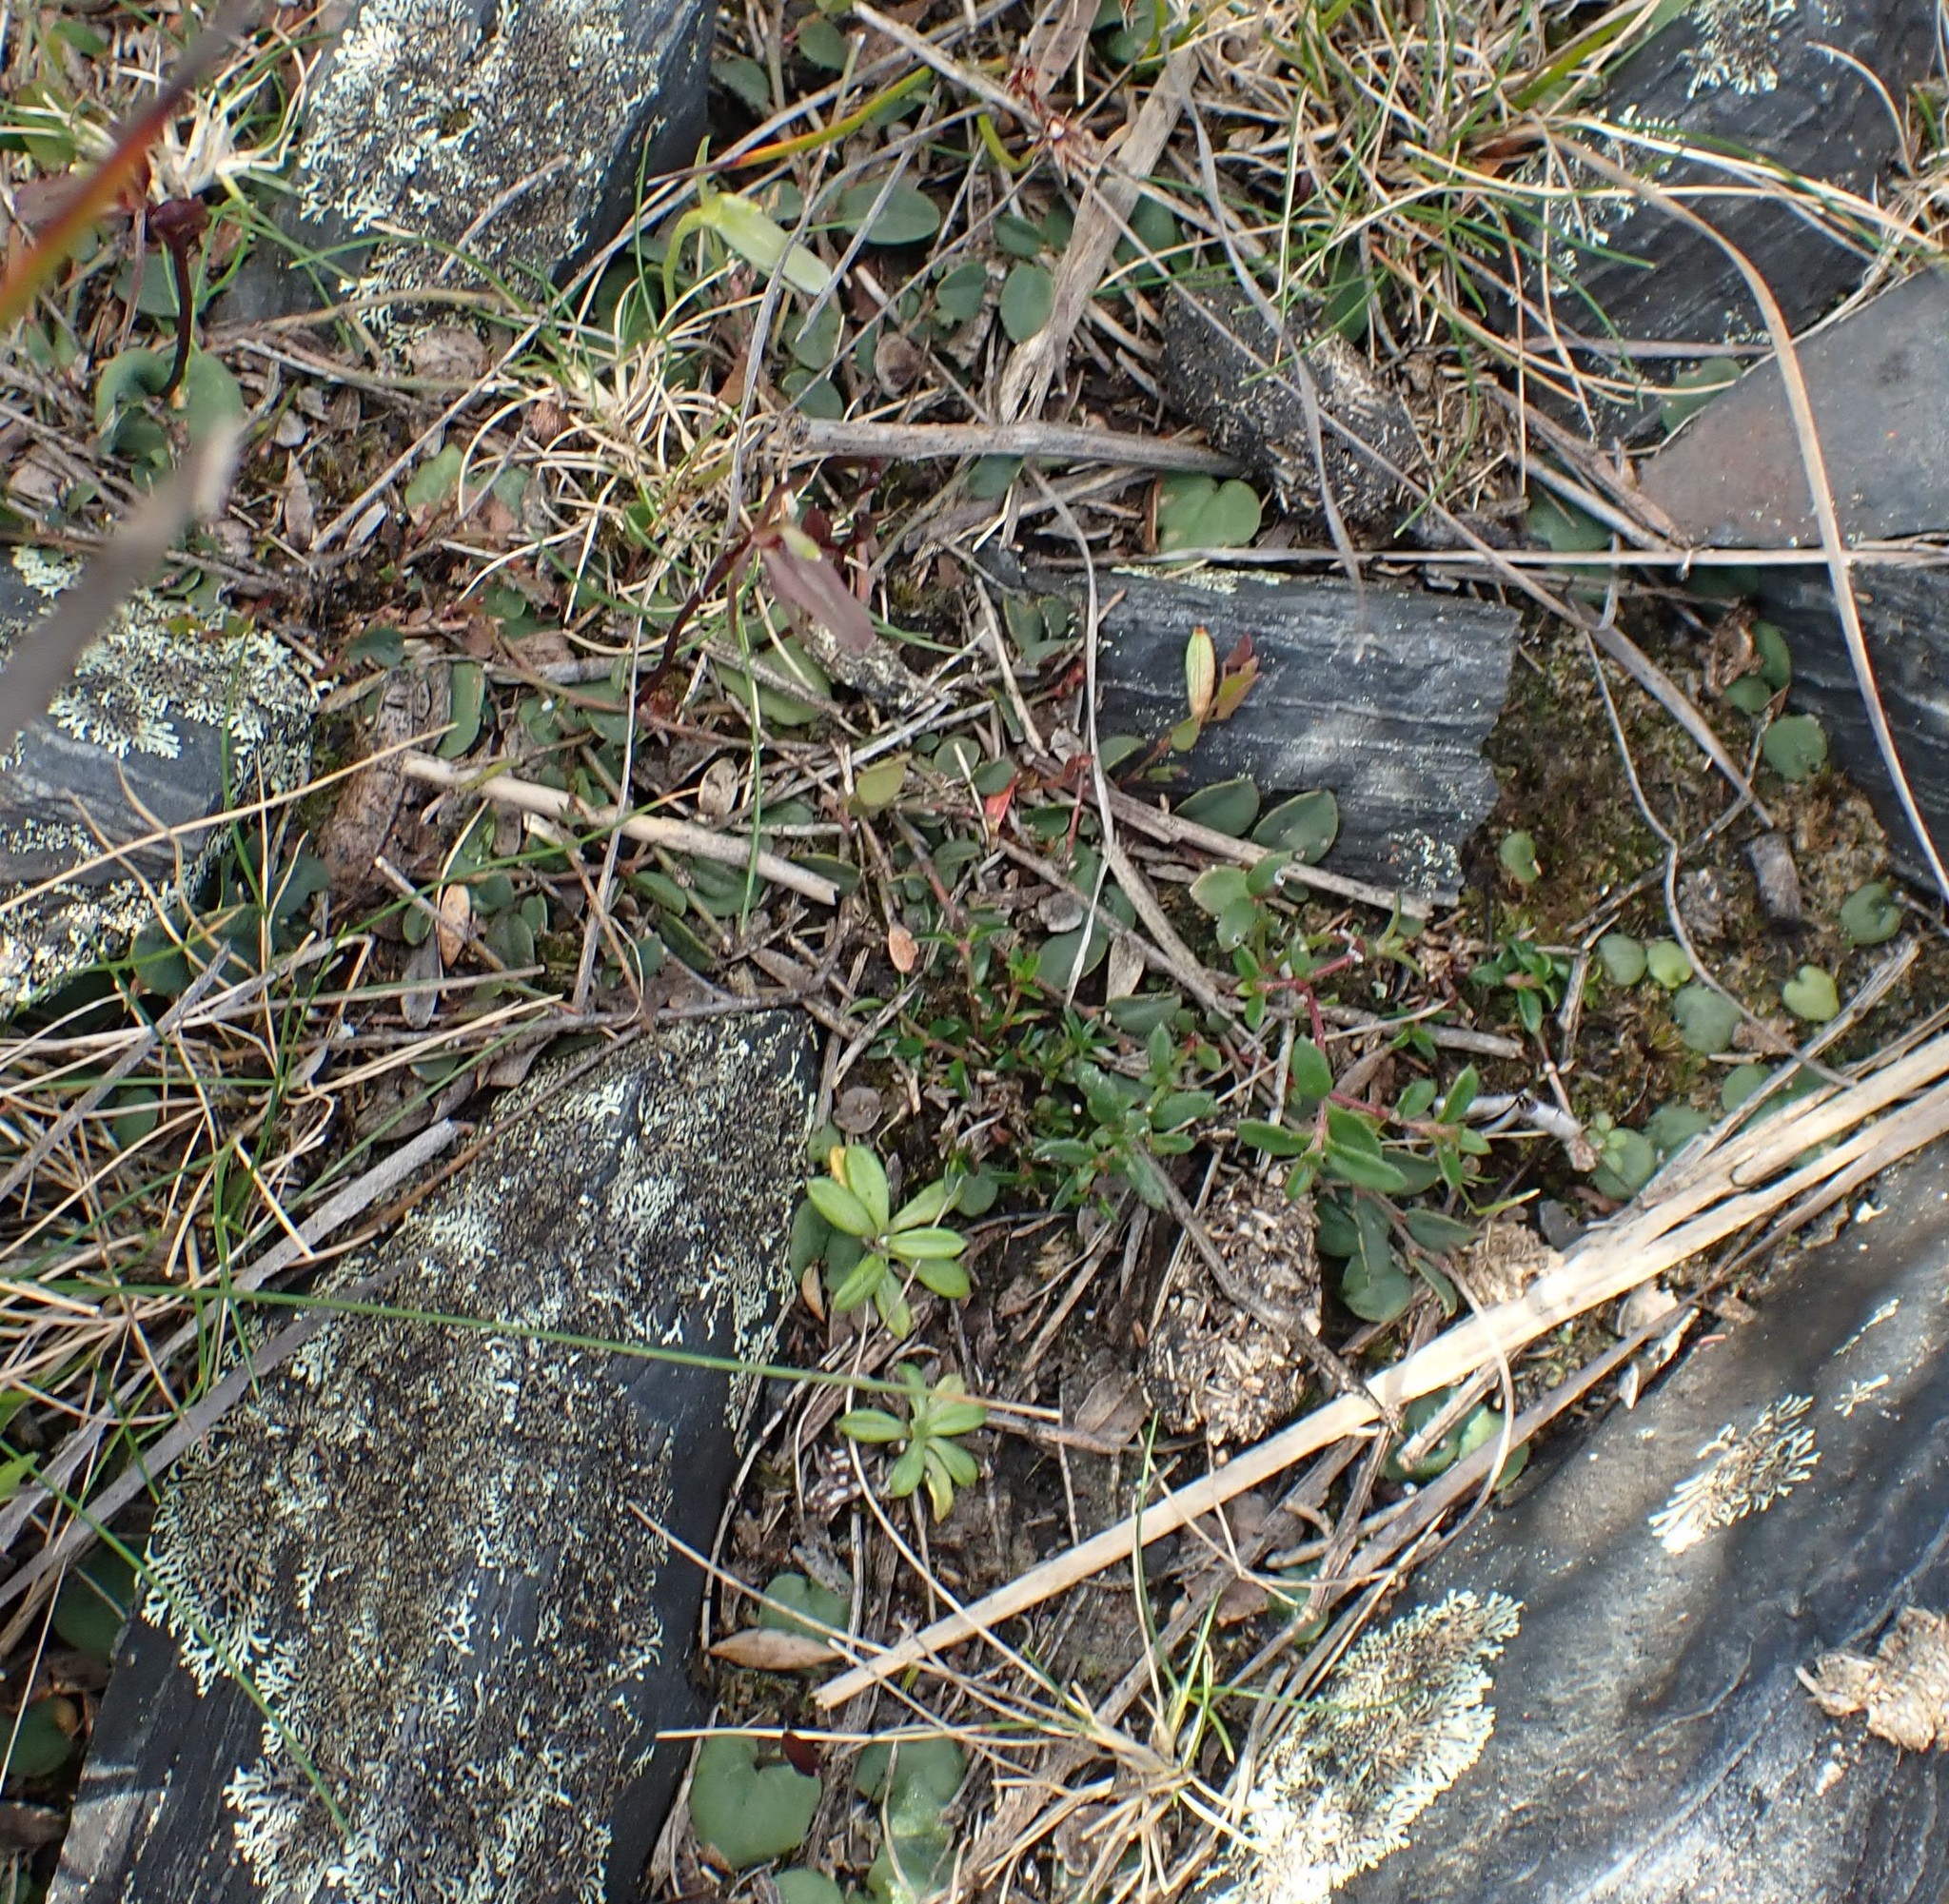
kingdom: Plantae
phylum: Tracheophyta
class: Liliopsida
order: Asparagales
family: Orchidaceae
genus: Cyrtostylis
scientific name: Cyrtostylis reniformis
